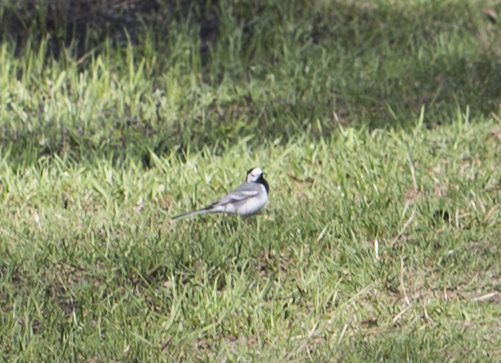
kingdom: Animalia
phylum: Chordata
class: Aves
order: Passeriformes
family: Motacillidae
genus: Motacilla
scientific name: Motacilla alba
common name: White wagtail
